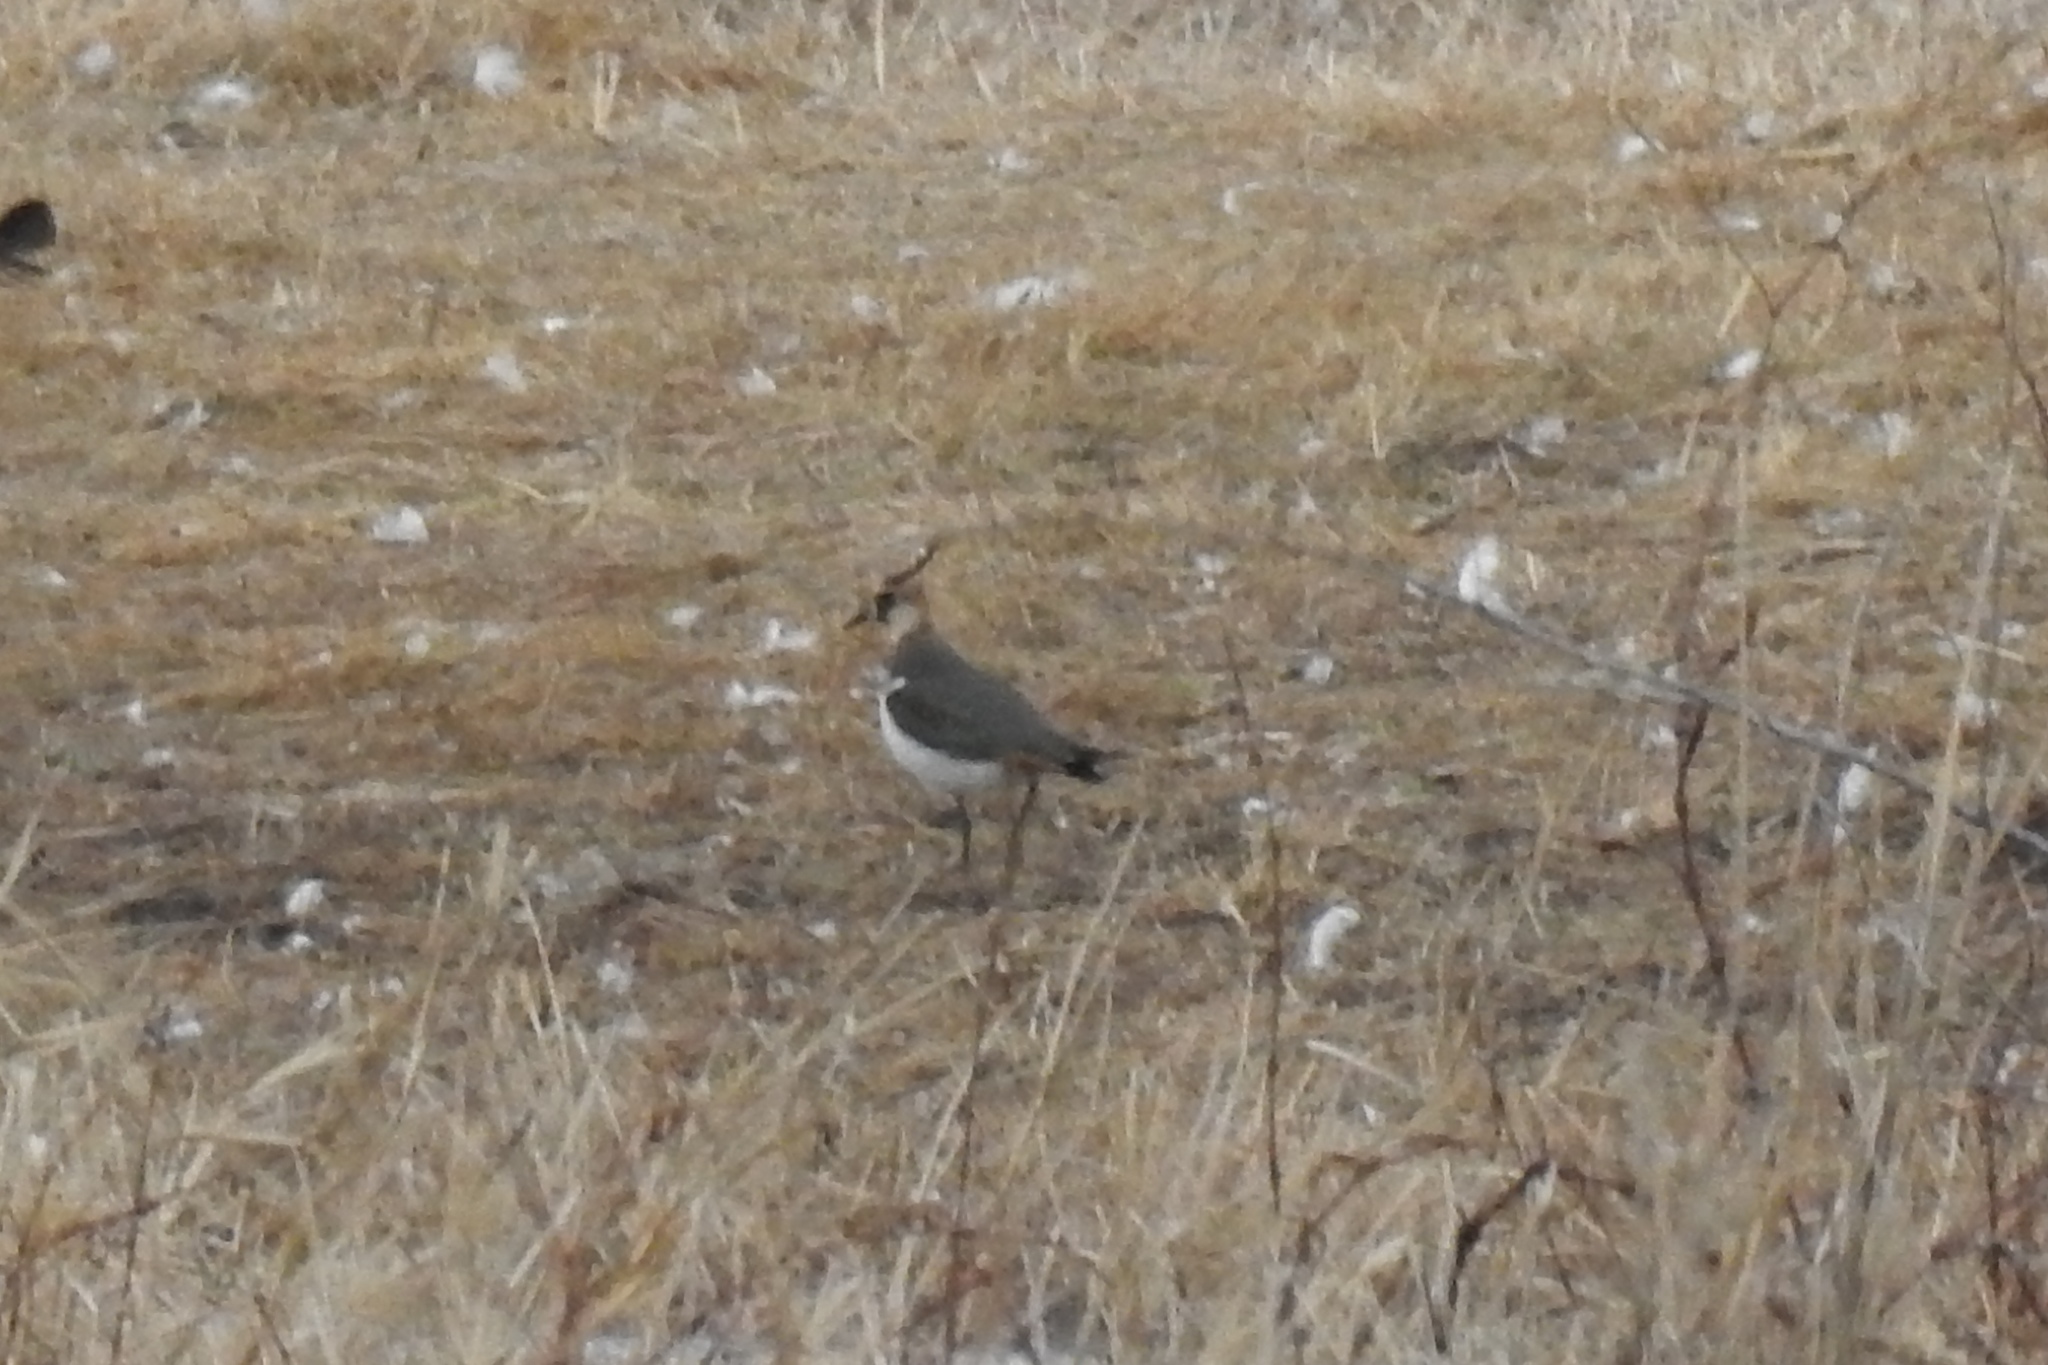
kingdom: Animalia
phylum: Chordata
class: Aves
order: Charadriiformes
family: Charadriidae
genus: Vanellus
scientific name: Vanellus vanellus
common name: Northern lapwing
